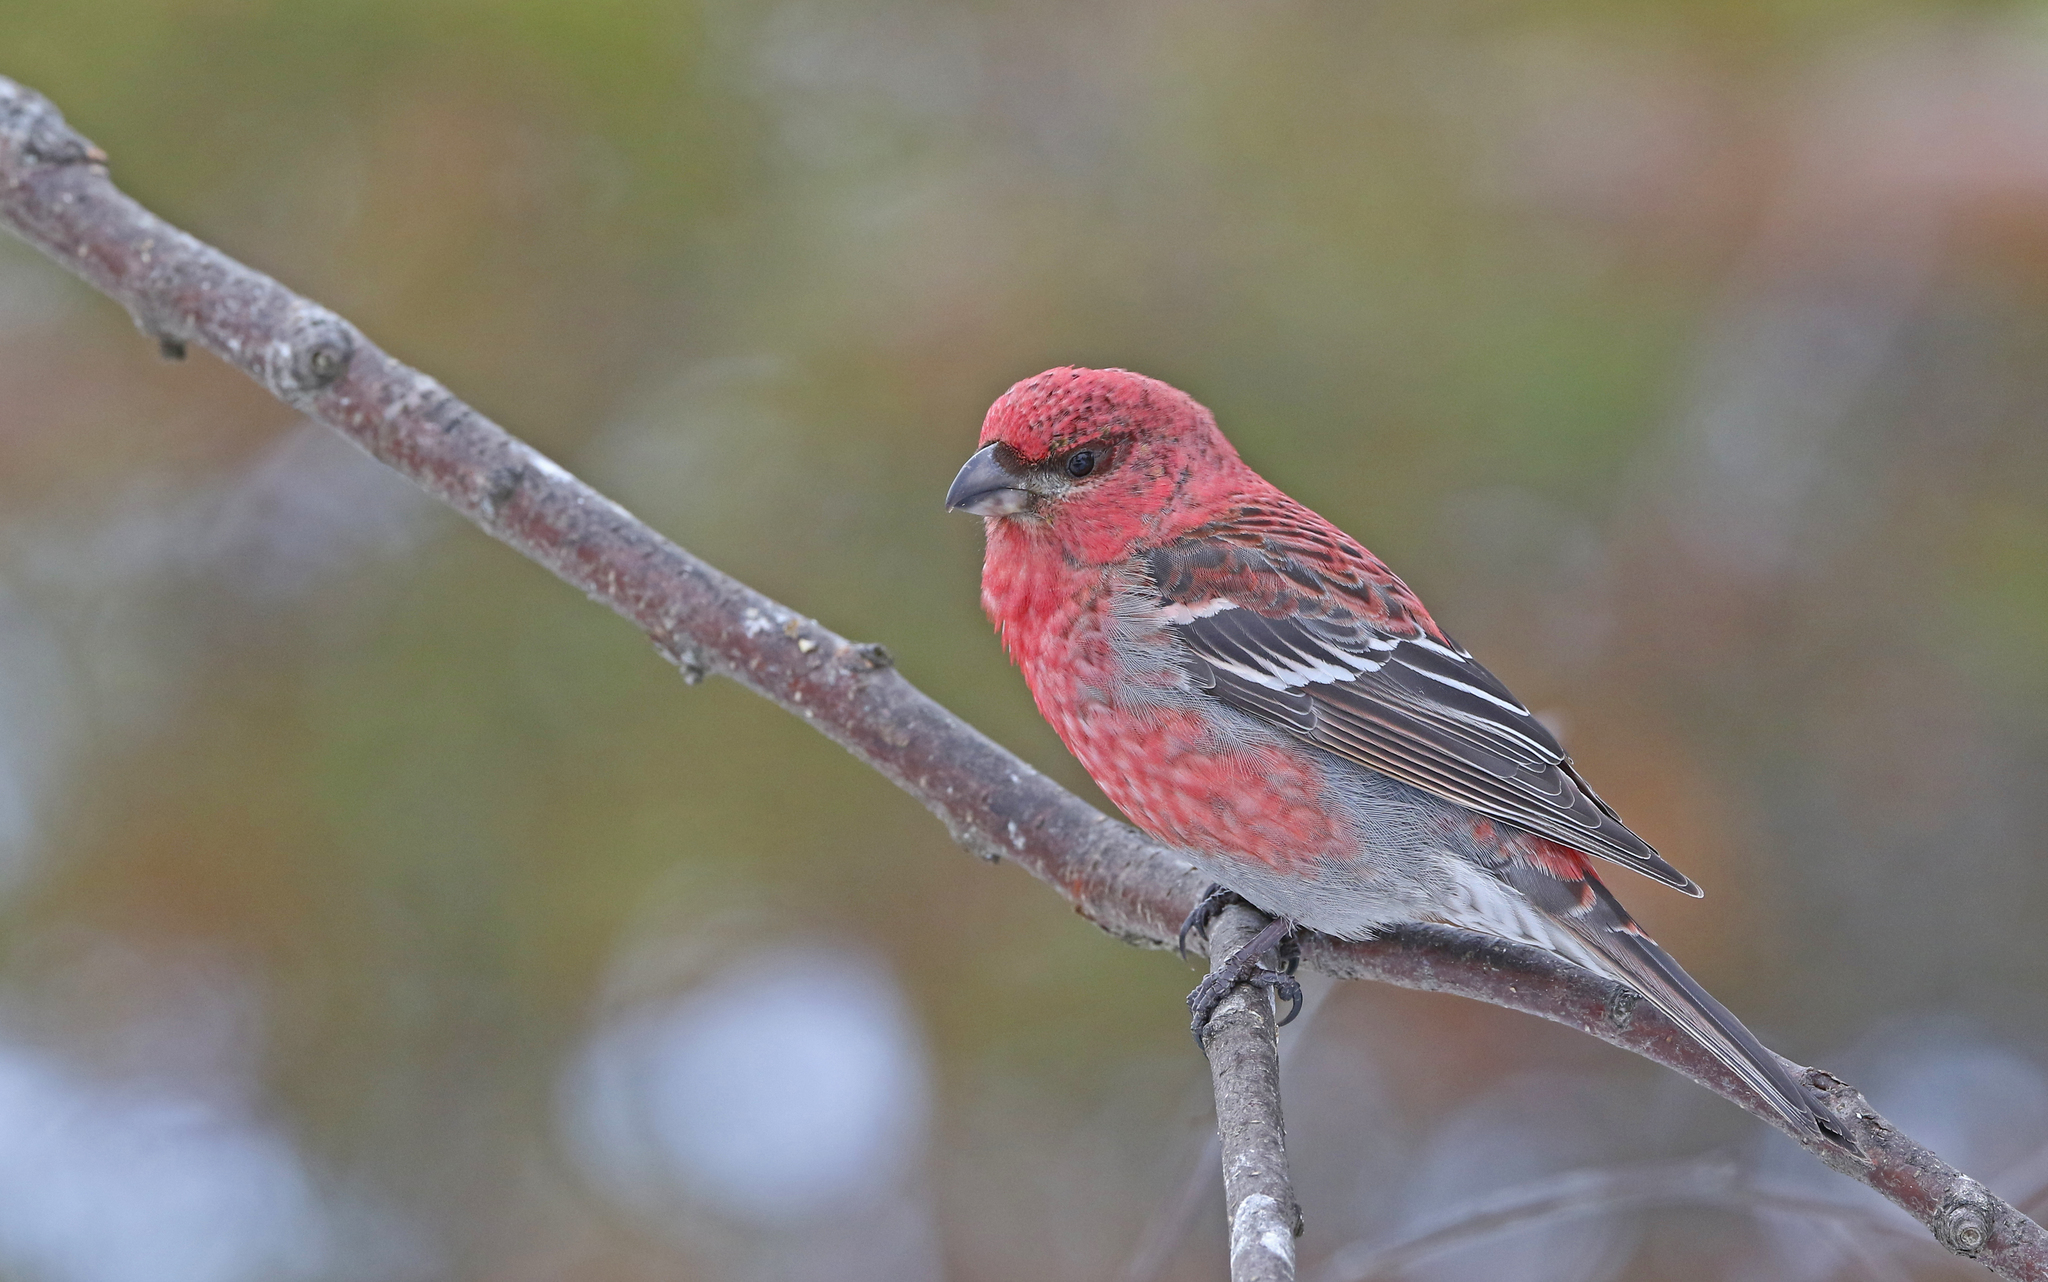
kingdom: Animalia
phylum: Chordata
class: Aves
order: Passeriformes
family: Fringillidae
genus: Pinicola
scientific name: Pinicola enucleator
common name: Pine grosbeak
